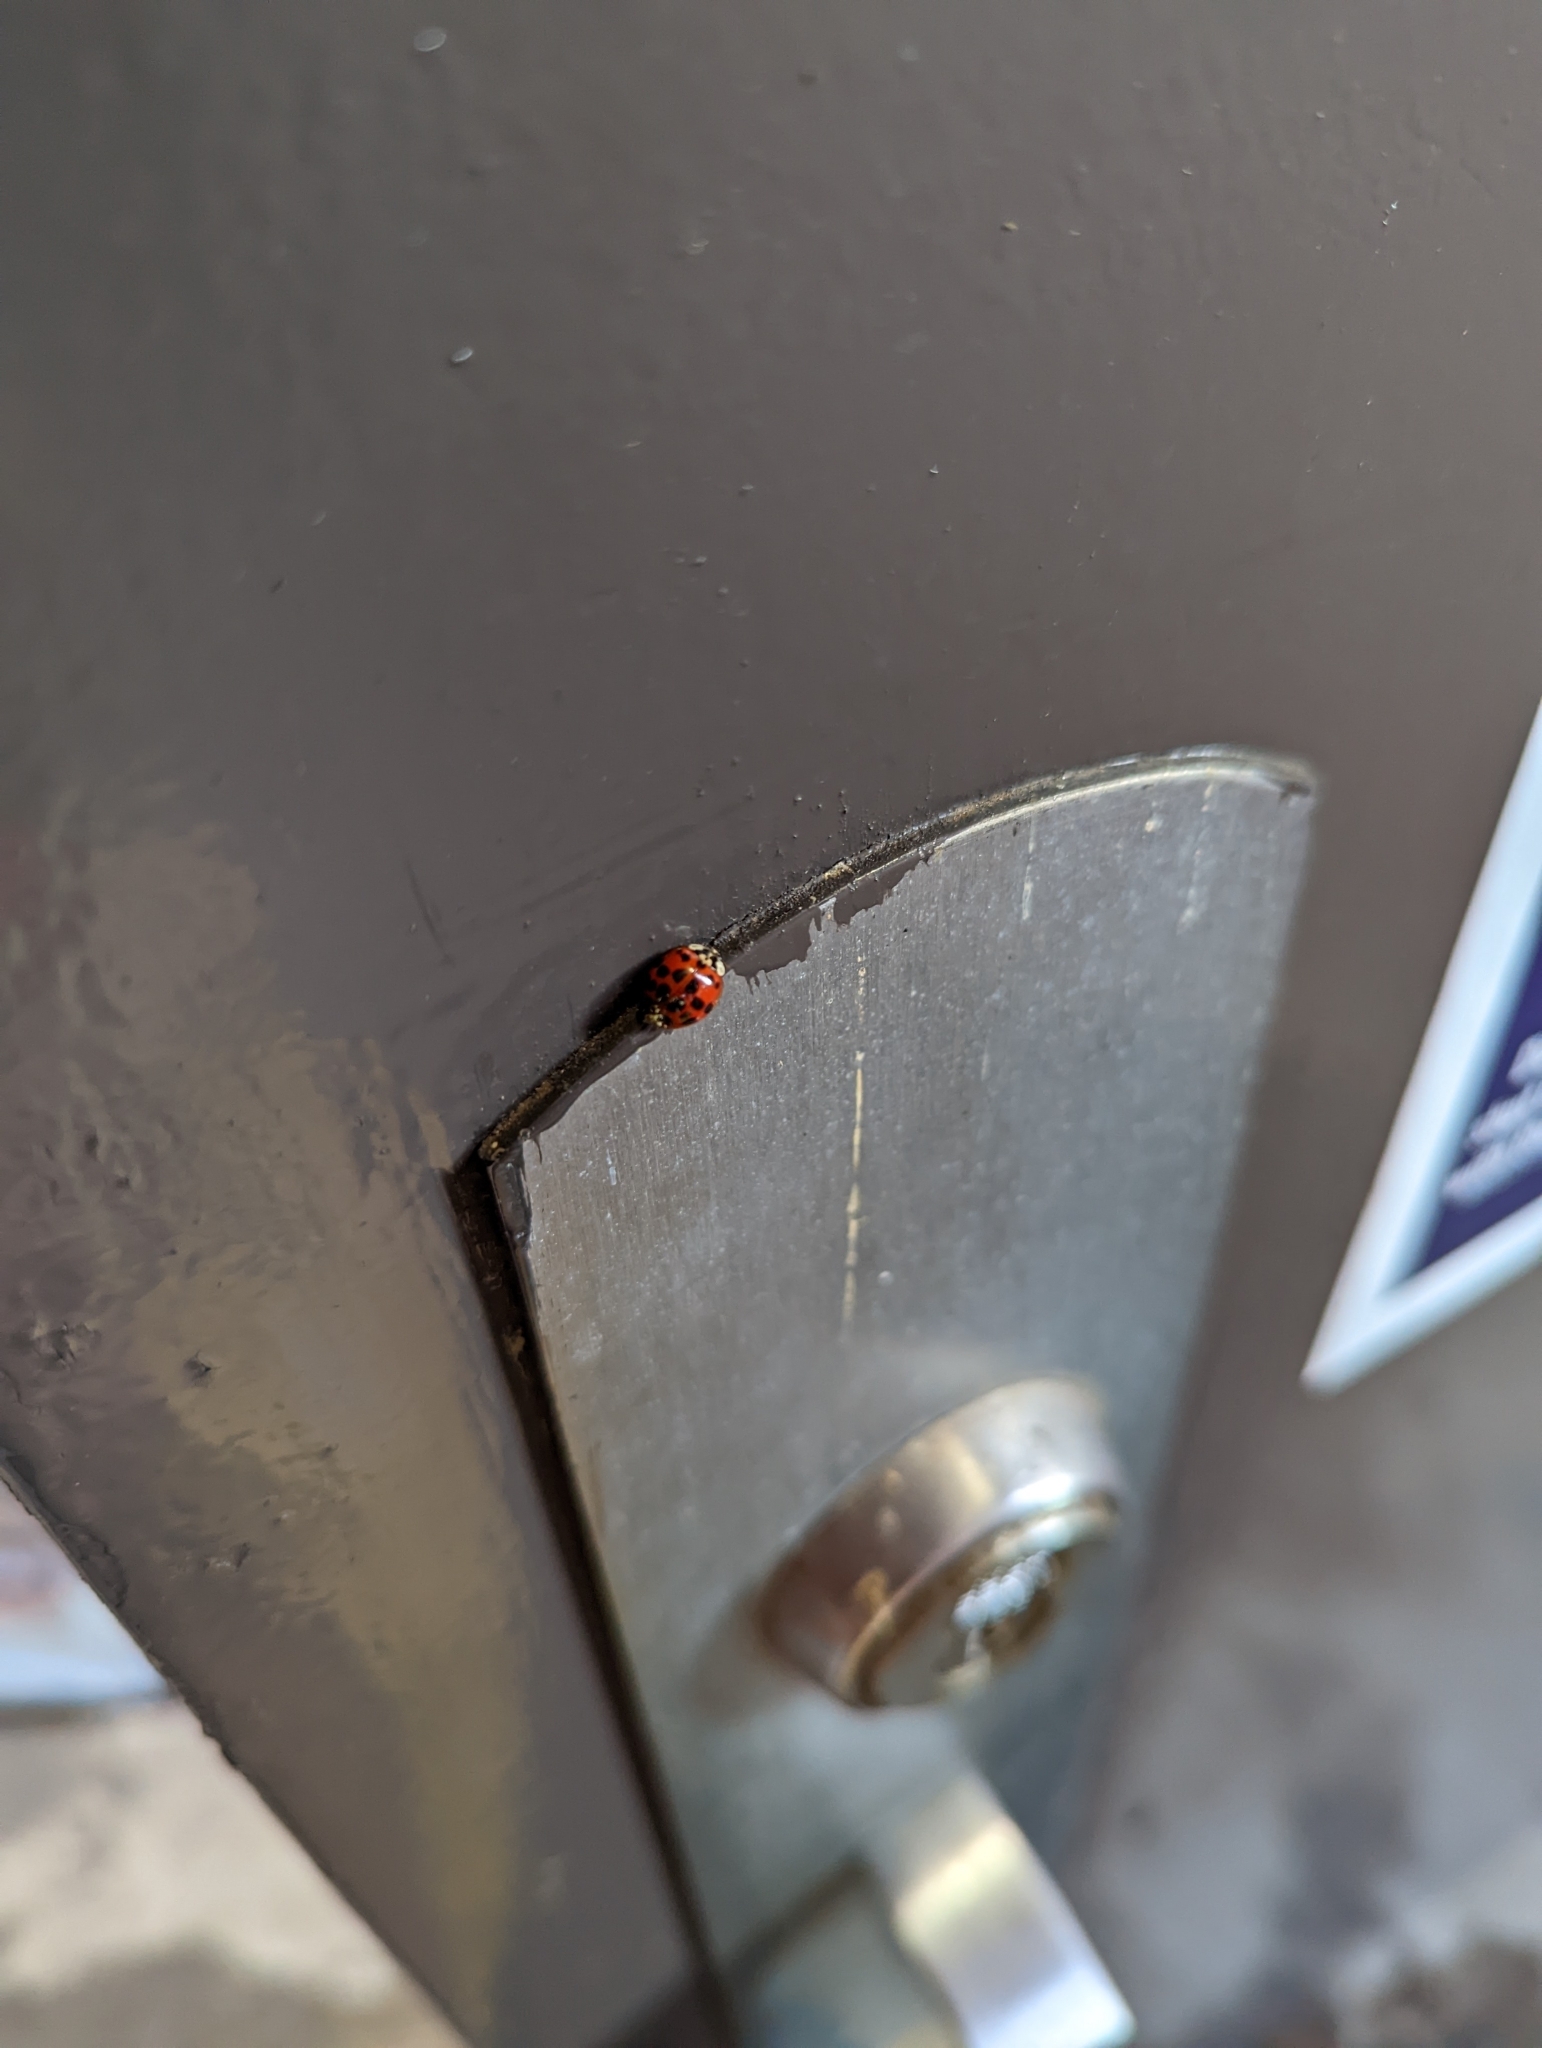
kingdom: Animalia
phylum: Arthropoda
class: Insecta
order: Coleoptera
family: Coccinellidae
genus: Harmonia
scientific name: Harmonia axyridis
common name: Harlequin ladybird
